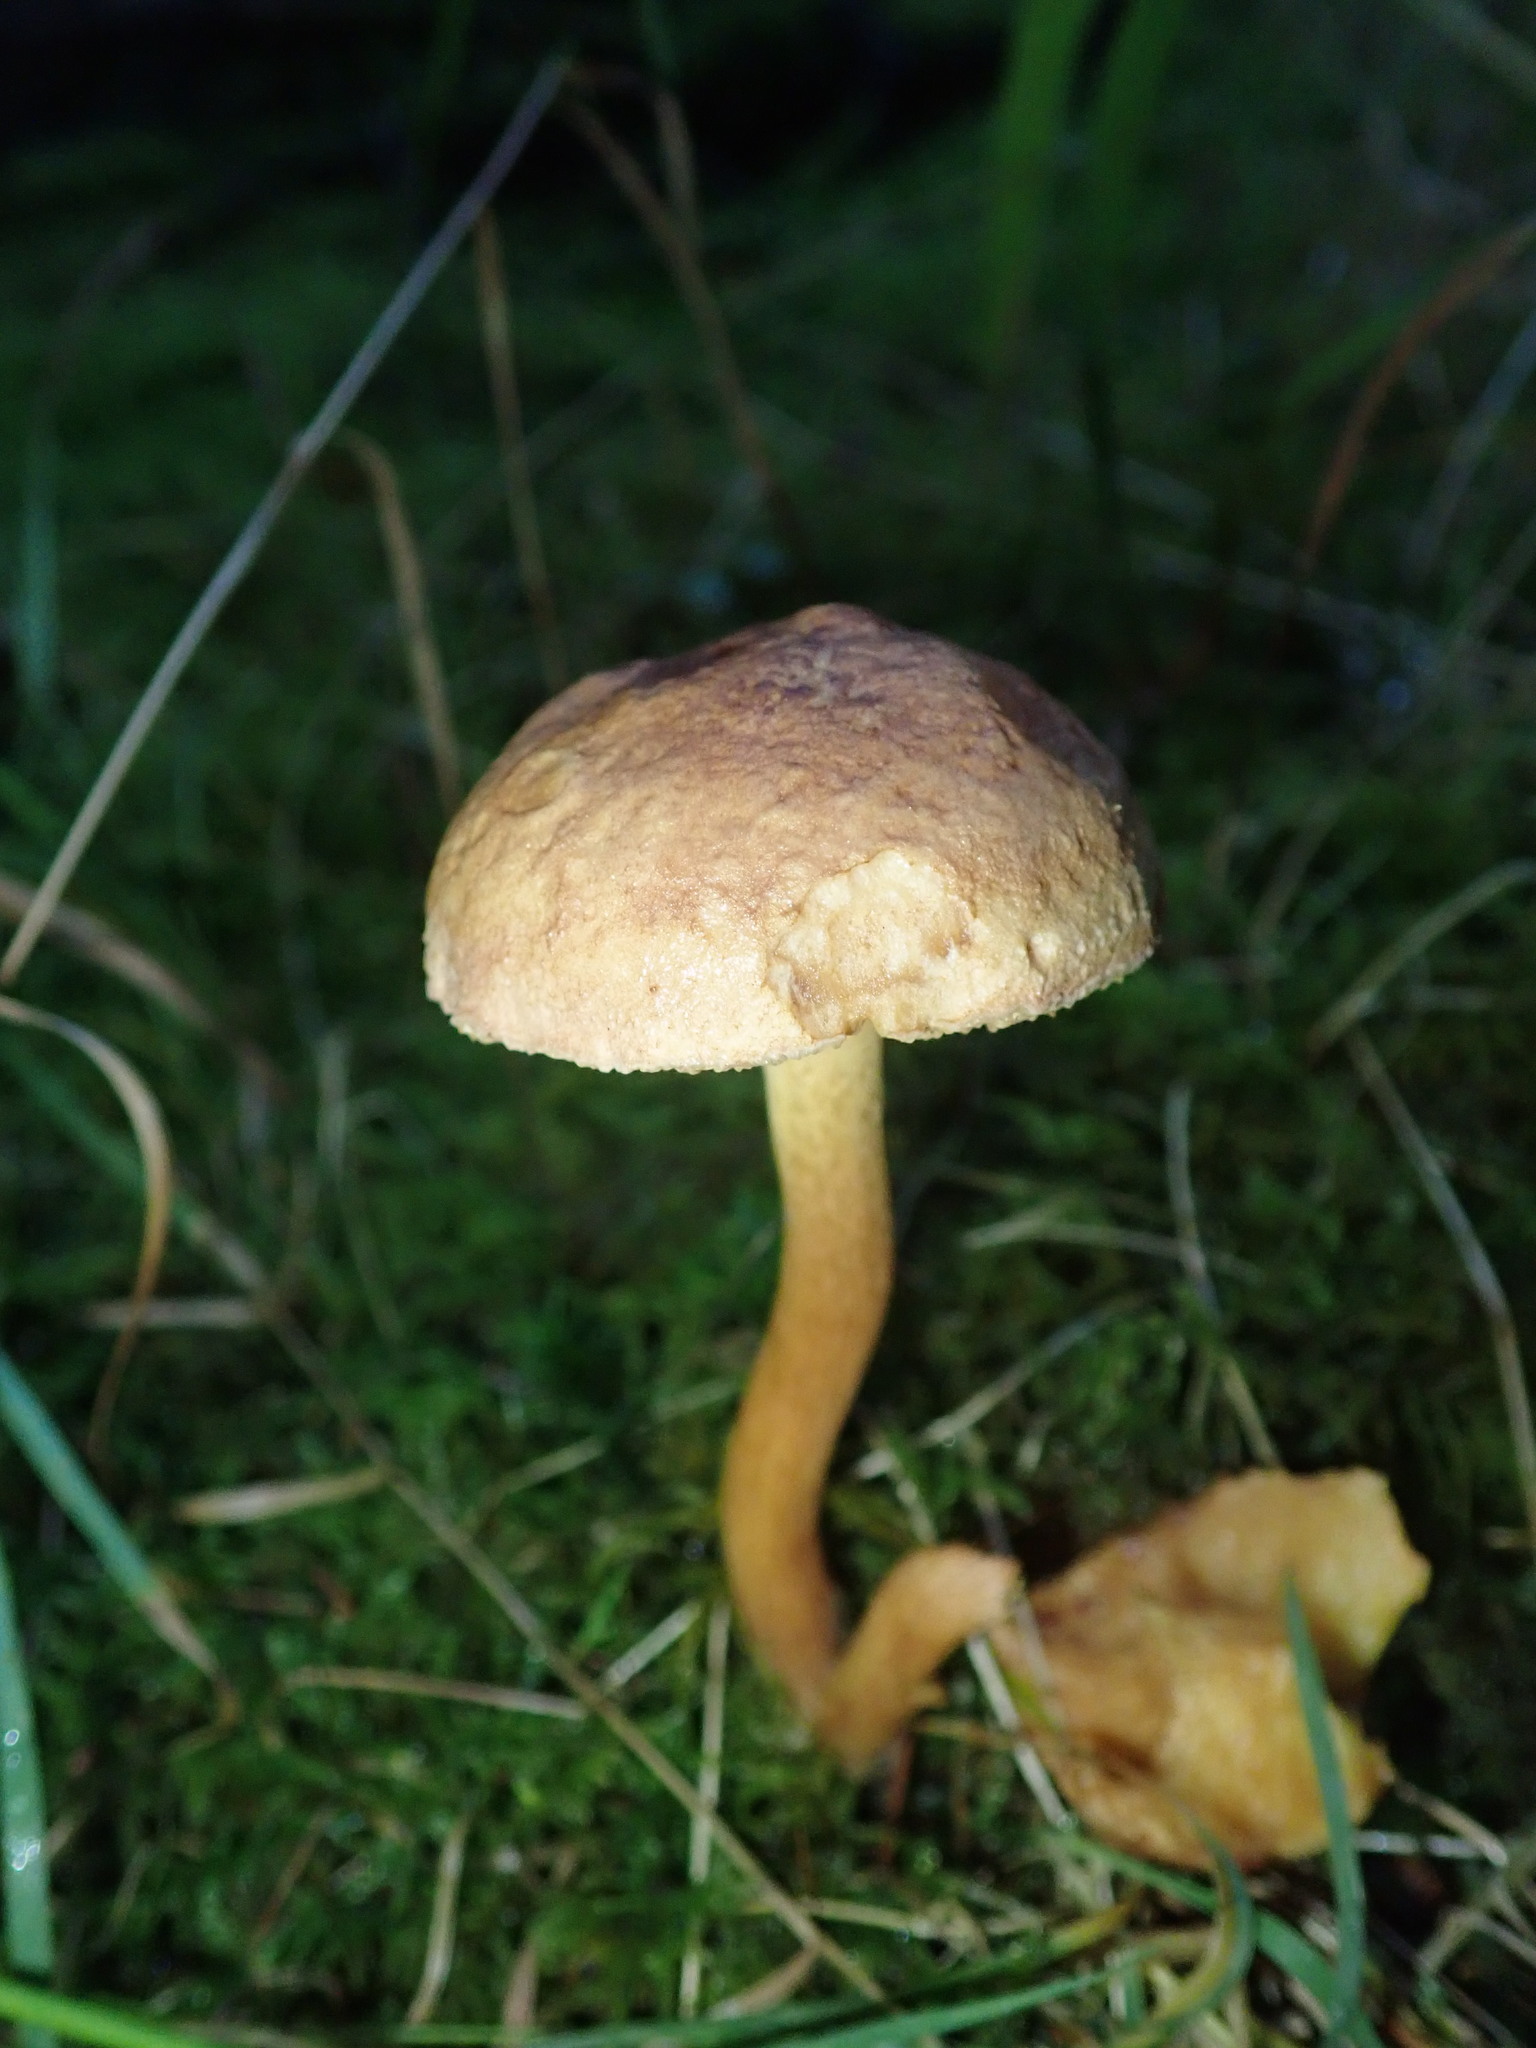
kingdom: Fungi
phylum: Basidiomycota
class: Agaricomycetes
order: Boletales
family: Boletaceae
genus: Chalciporus
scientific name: Chalciporus piperatus
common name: Peppery bolete
